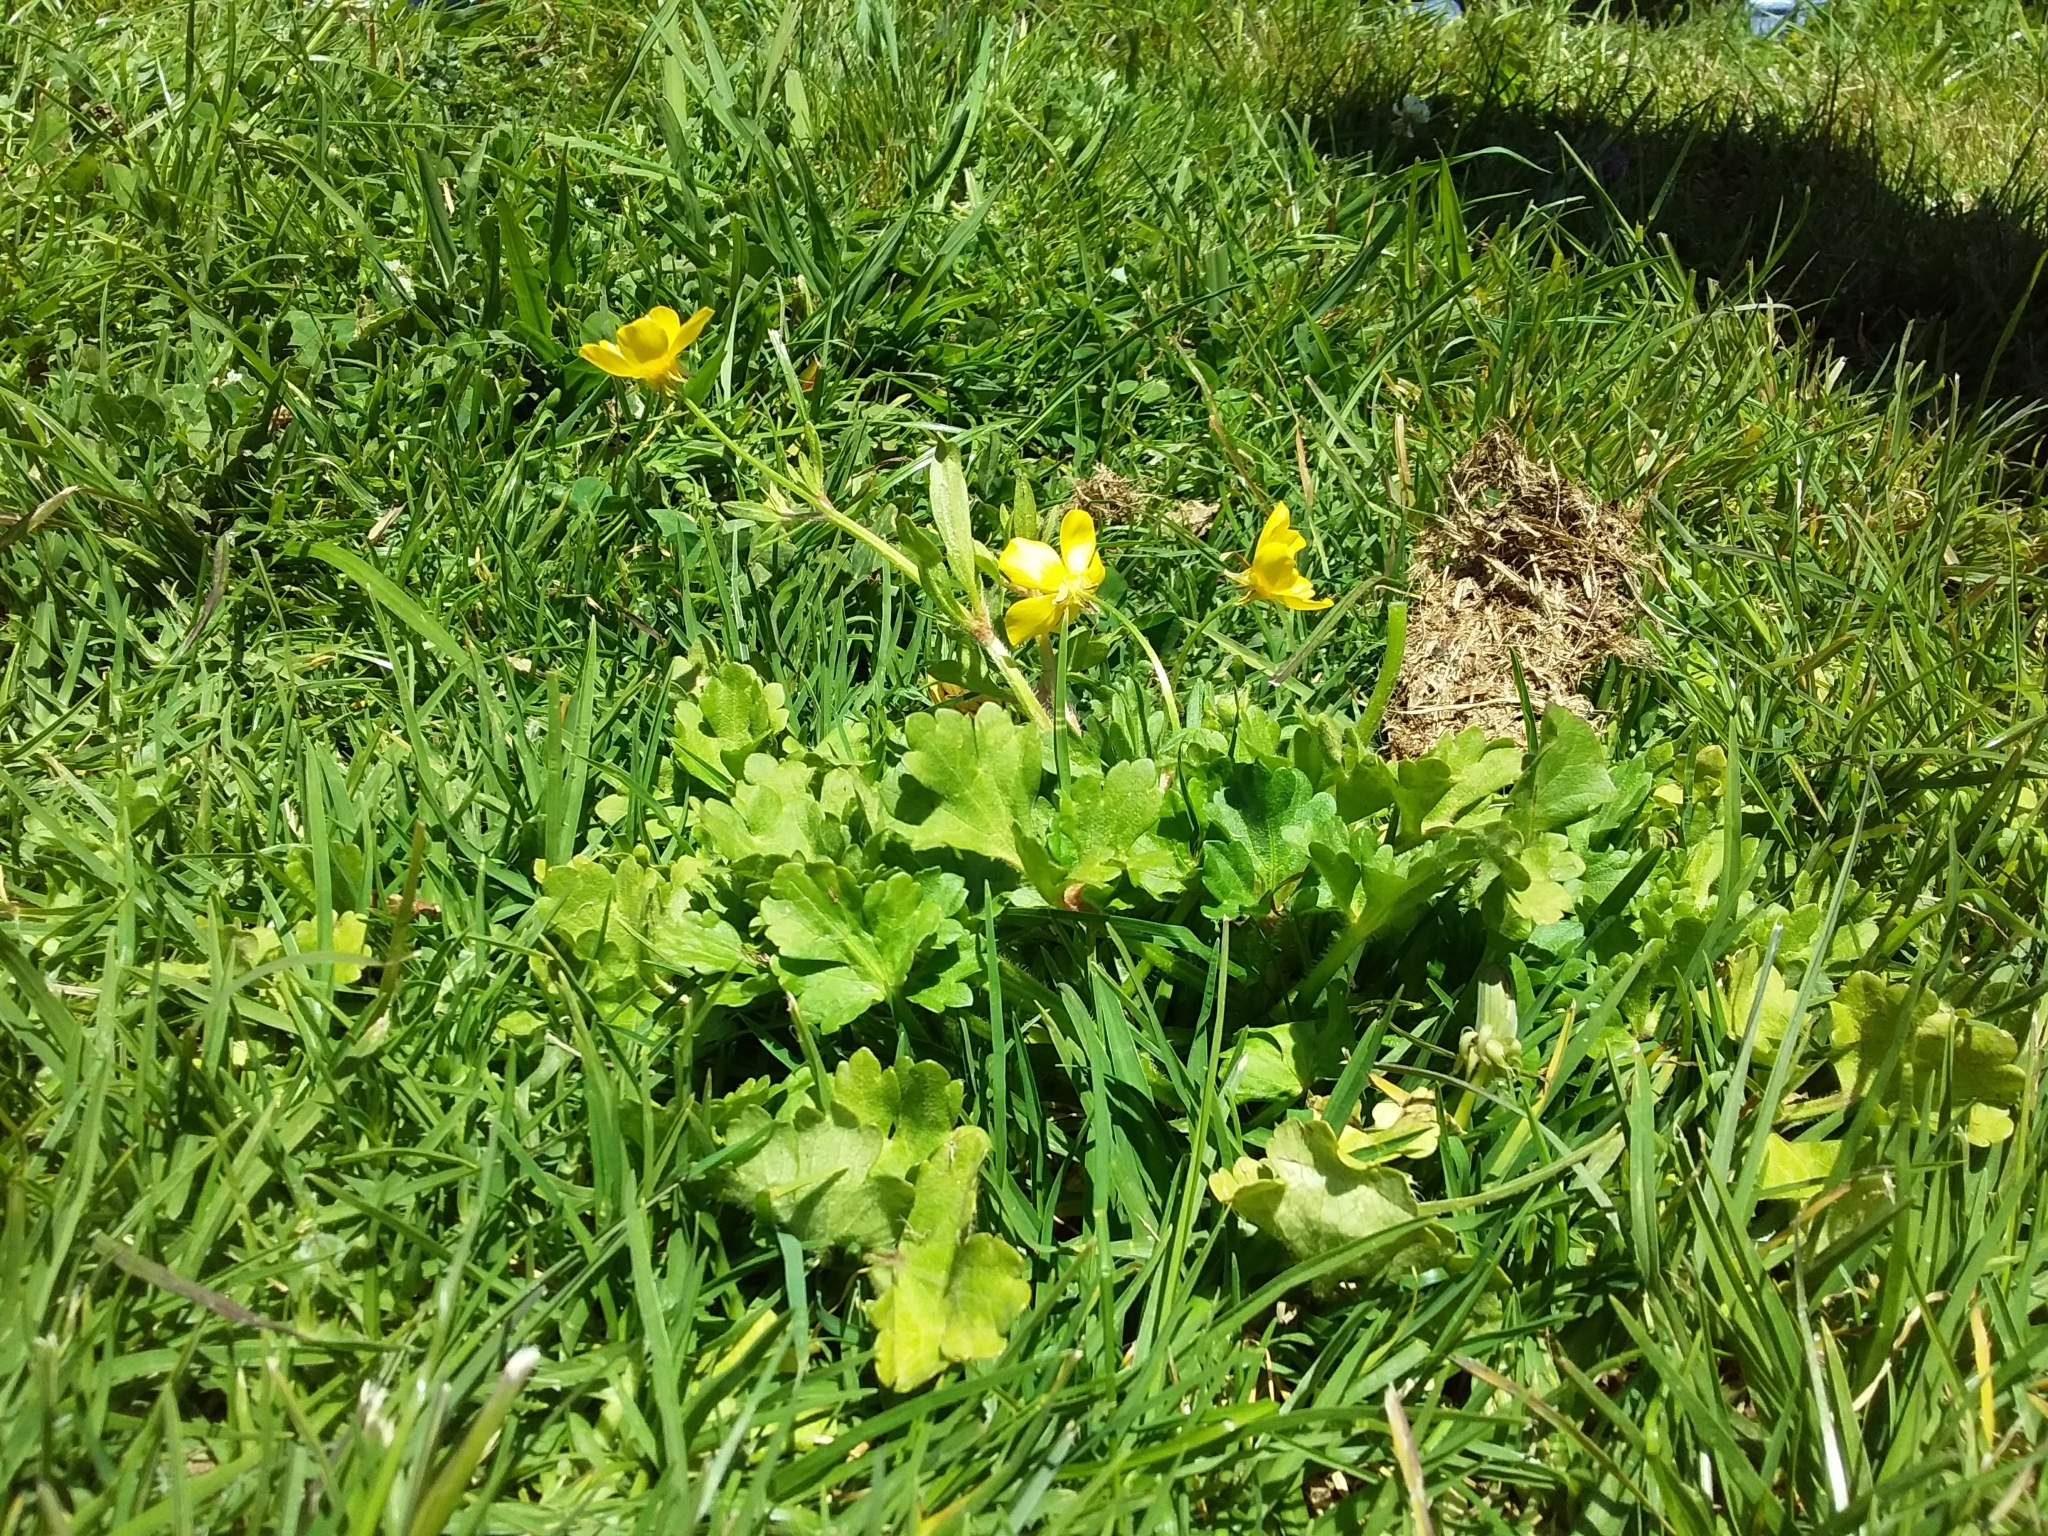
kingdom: Plantae
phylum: Tracheophyta
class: Magnoliopsida
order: Ranunculales
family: Ranunculaceae
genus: Ranunculus
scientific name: Ranunculus sardous
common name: Hairy buttercup
